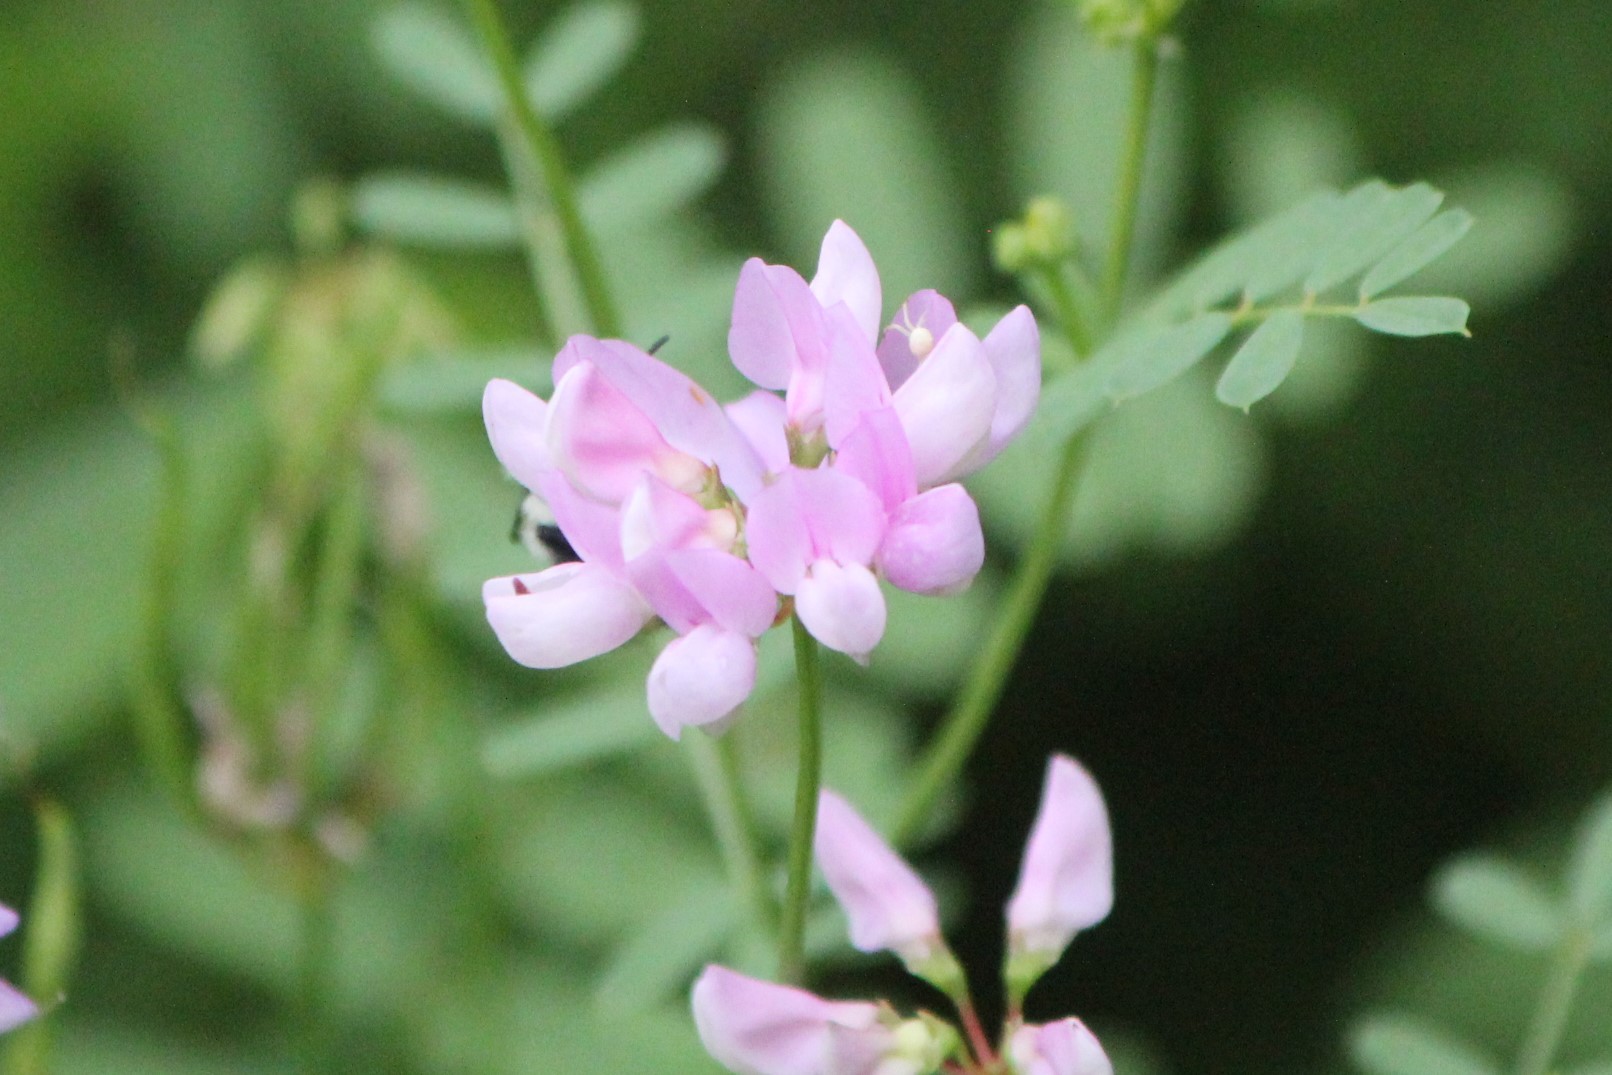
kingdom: Plantae
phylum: Tracheophyta
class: Magnoliopsida
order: Fabales
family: Fabaceae
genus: Coronilla
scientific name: Coronilla varia
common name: Crownvetch
